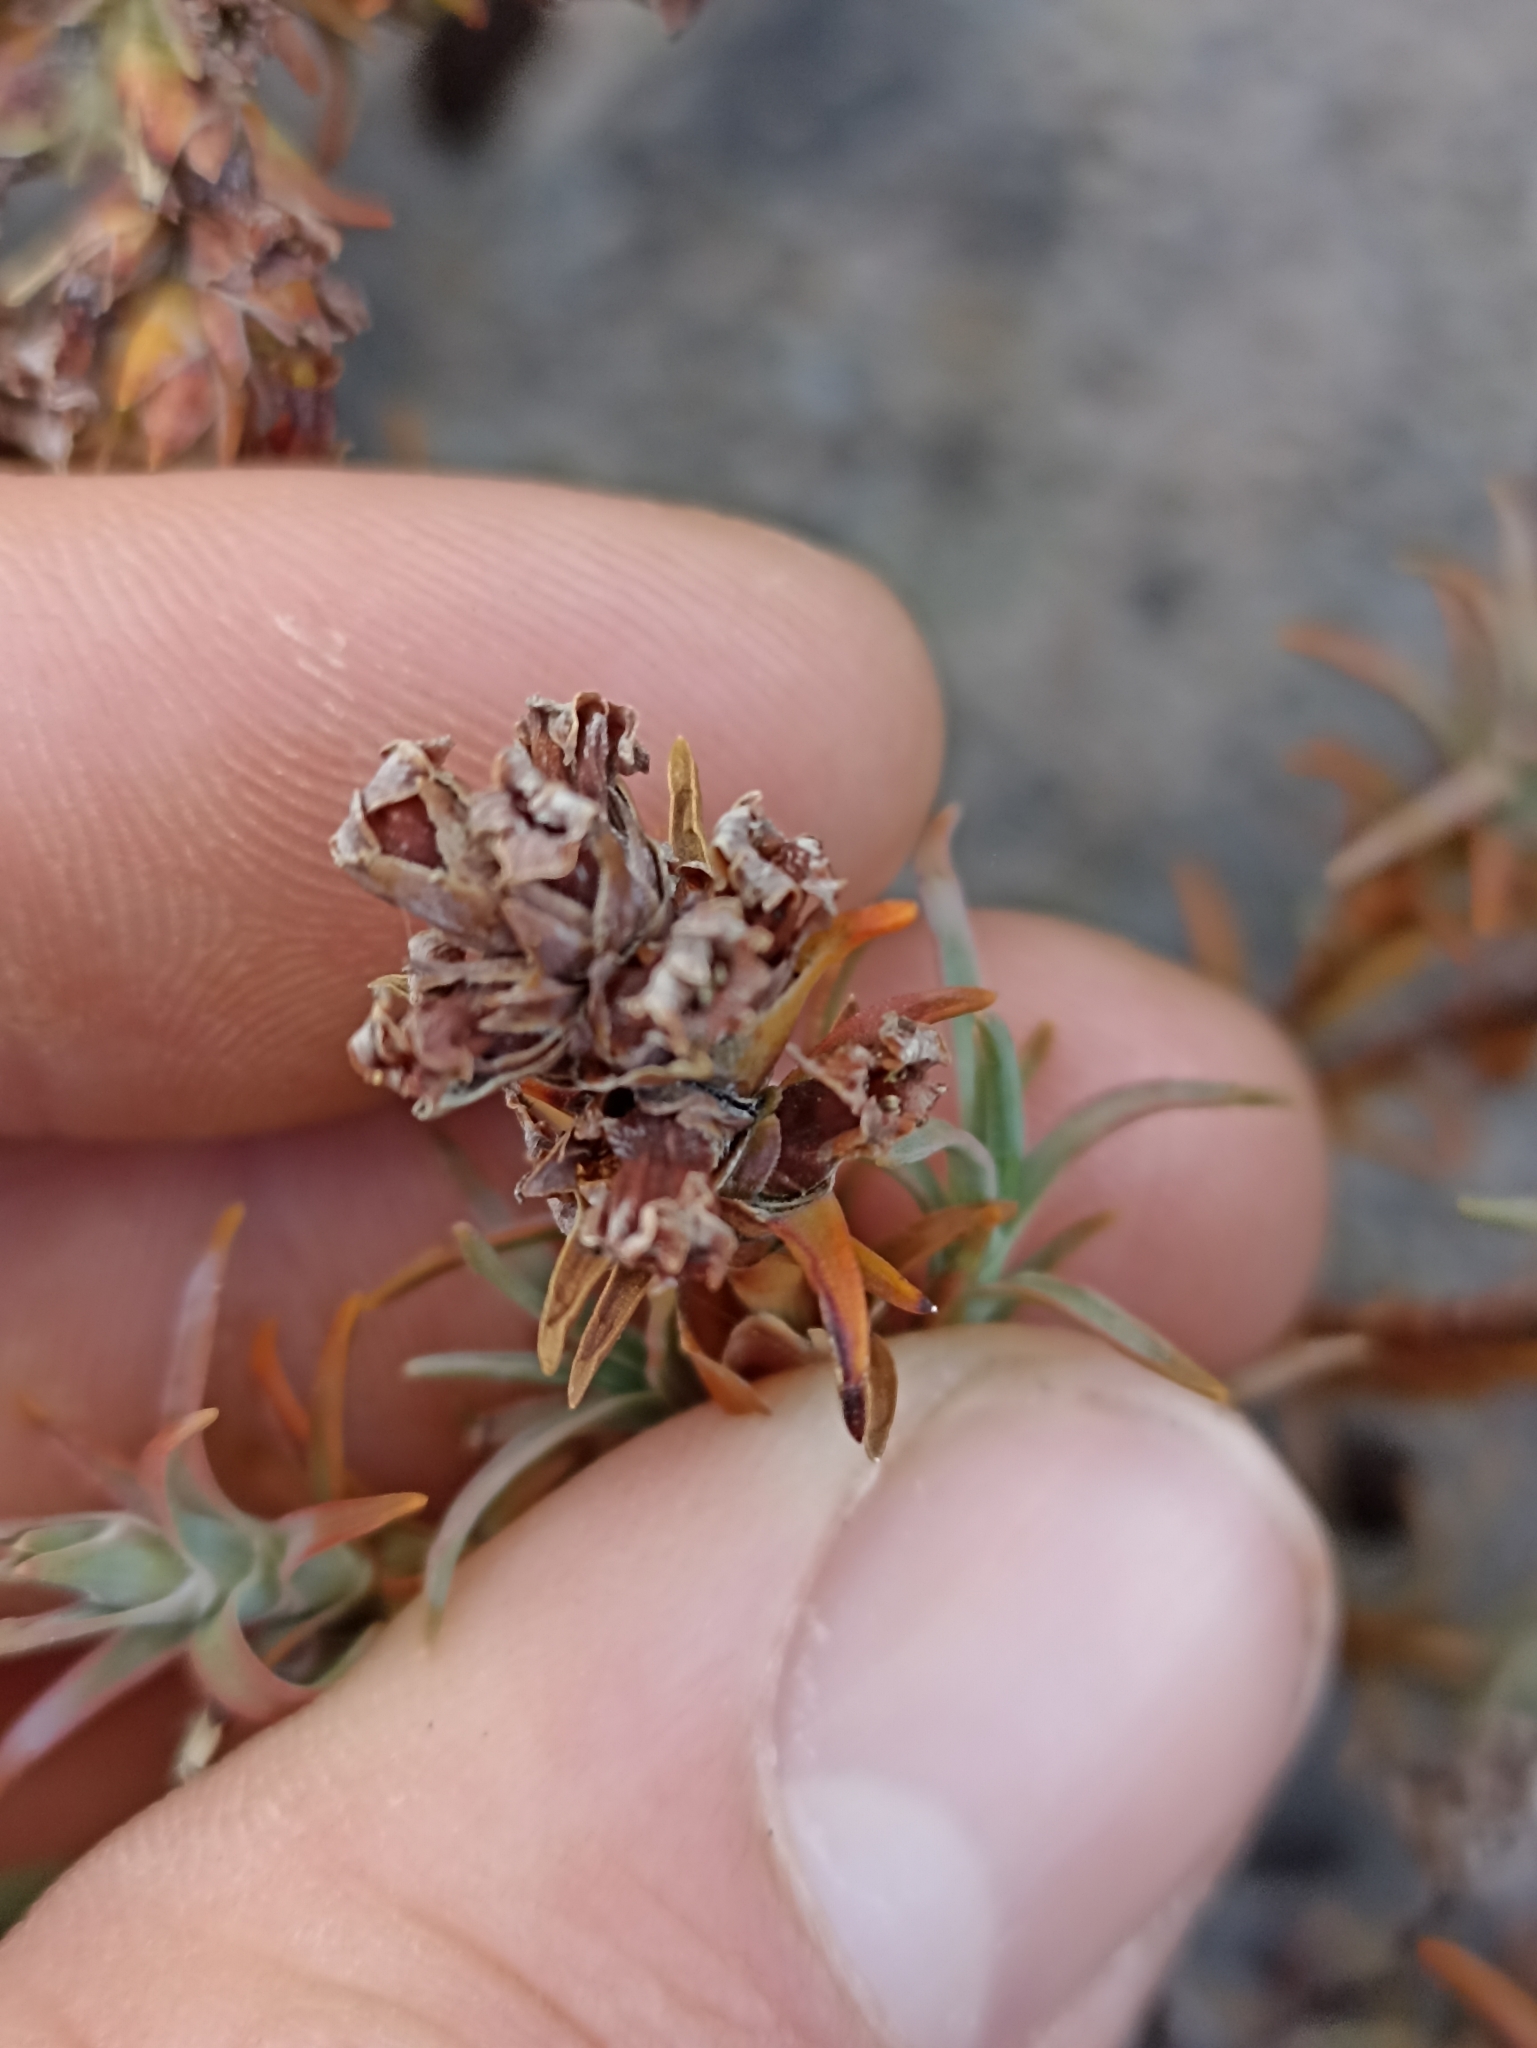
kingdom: Plantae
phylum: Tracheophyta
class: Magnoliopsida
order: Ericales
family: Ericaceae
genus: Dracophyllum
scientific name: Dracophyllum recurvum
